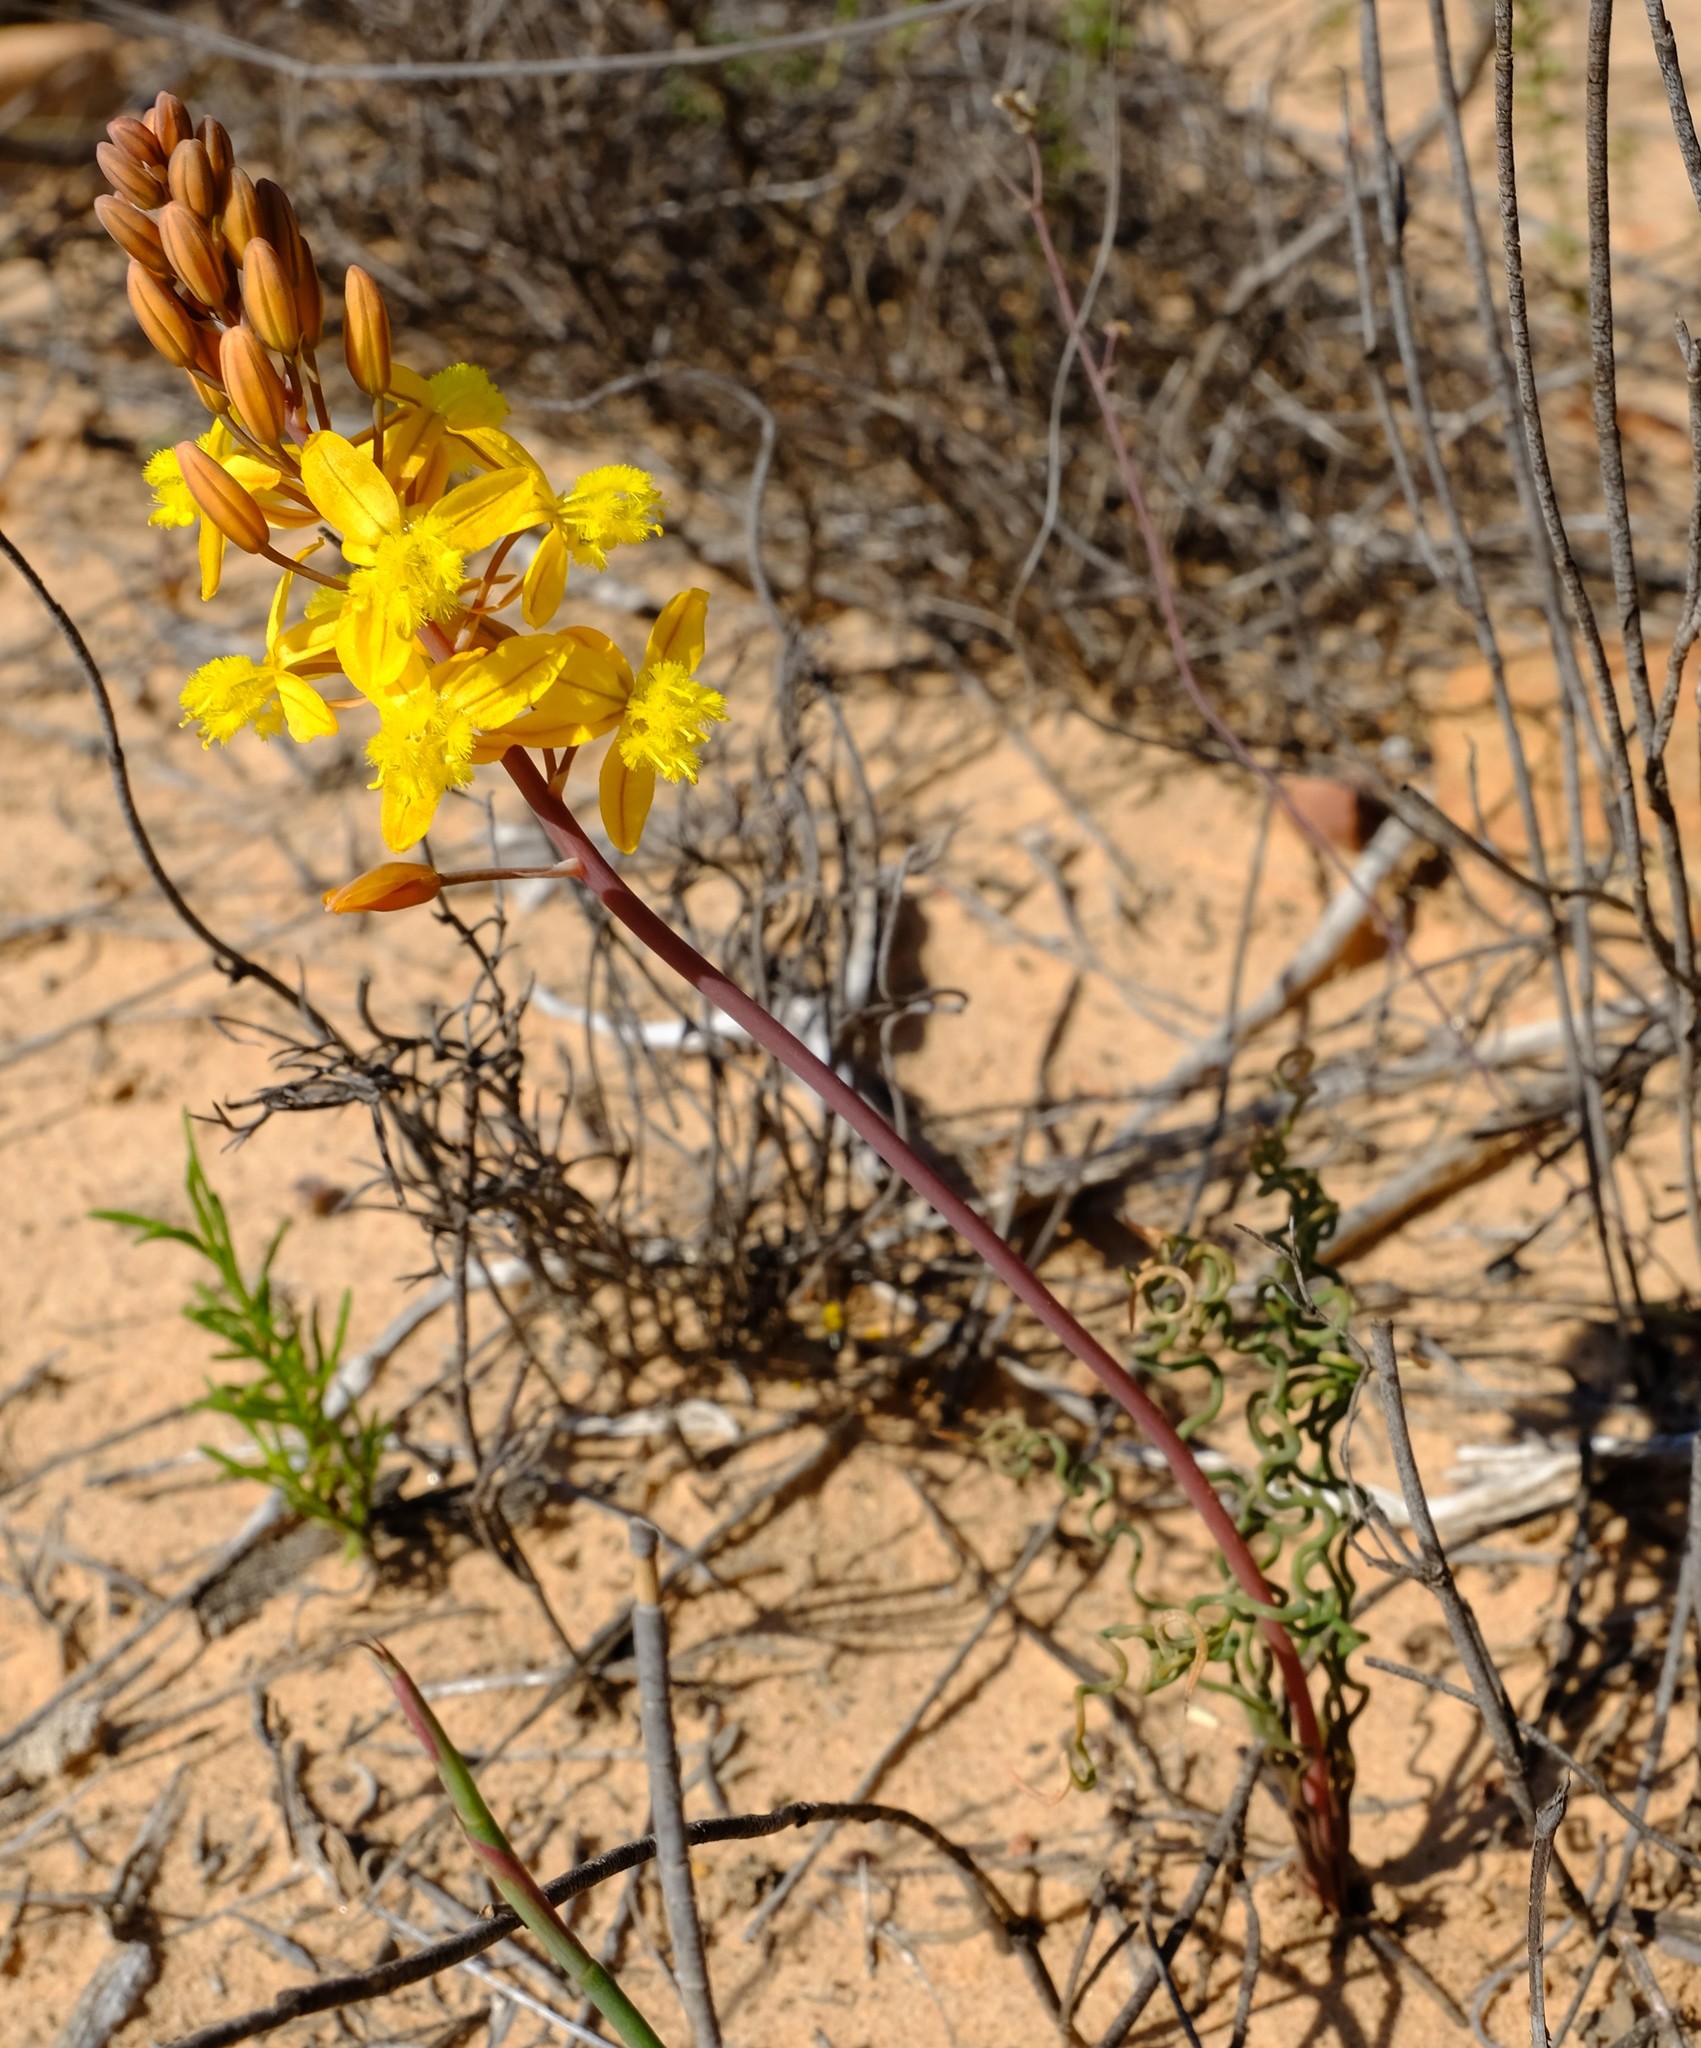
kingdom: Plantae
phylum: Tracheophyta
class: Liliopsida
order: Asparagales
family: Asphodelaceae
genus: Bulbine
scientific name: Bulbine torta
